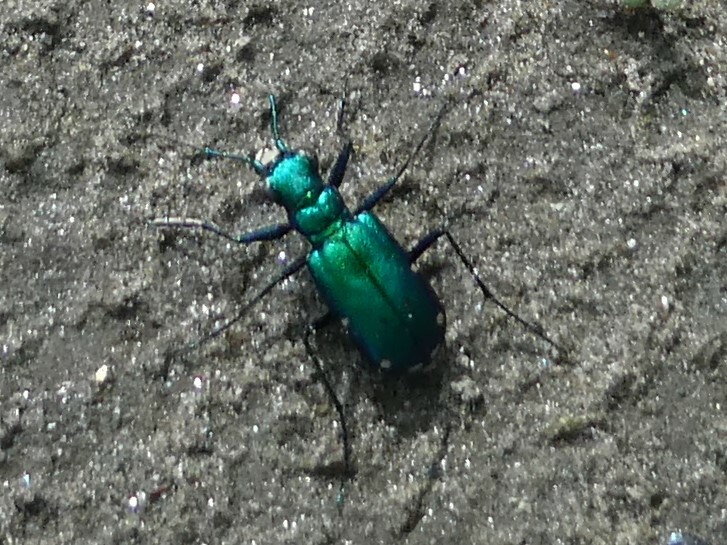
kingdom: Animalia
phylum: Arthropoda
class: Insecta
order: Coleoptera
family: Carabidae
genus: Cicindela
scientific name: Cicindela sexguttata
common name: Six-spotted tiger beetle
